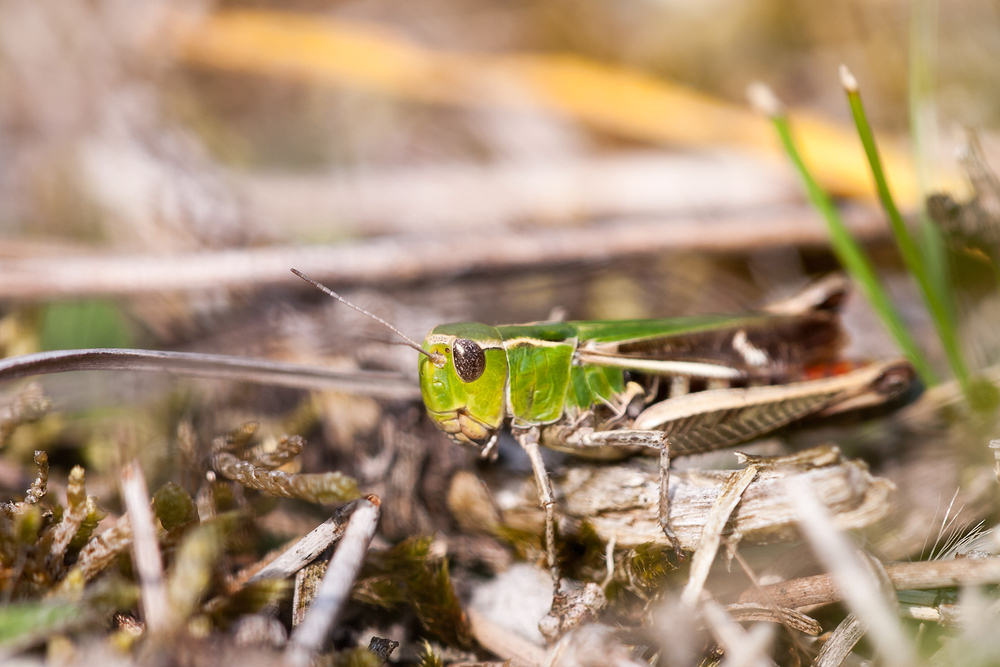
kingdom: Animalia
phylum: Arthropoda
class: Insecta
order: Orthoptera
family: Acrididae
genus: Stenobothrus
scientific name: Stenobothrus lineatus
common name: Stripe-winged grasshopper
